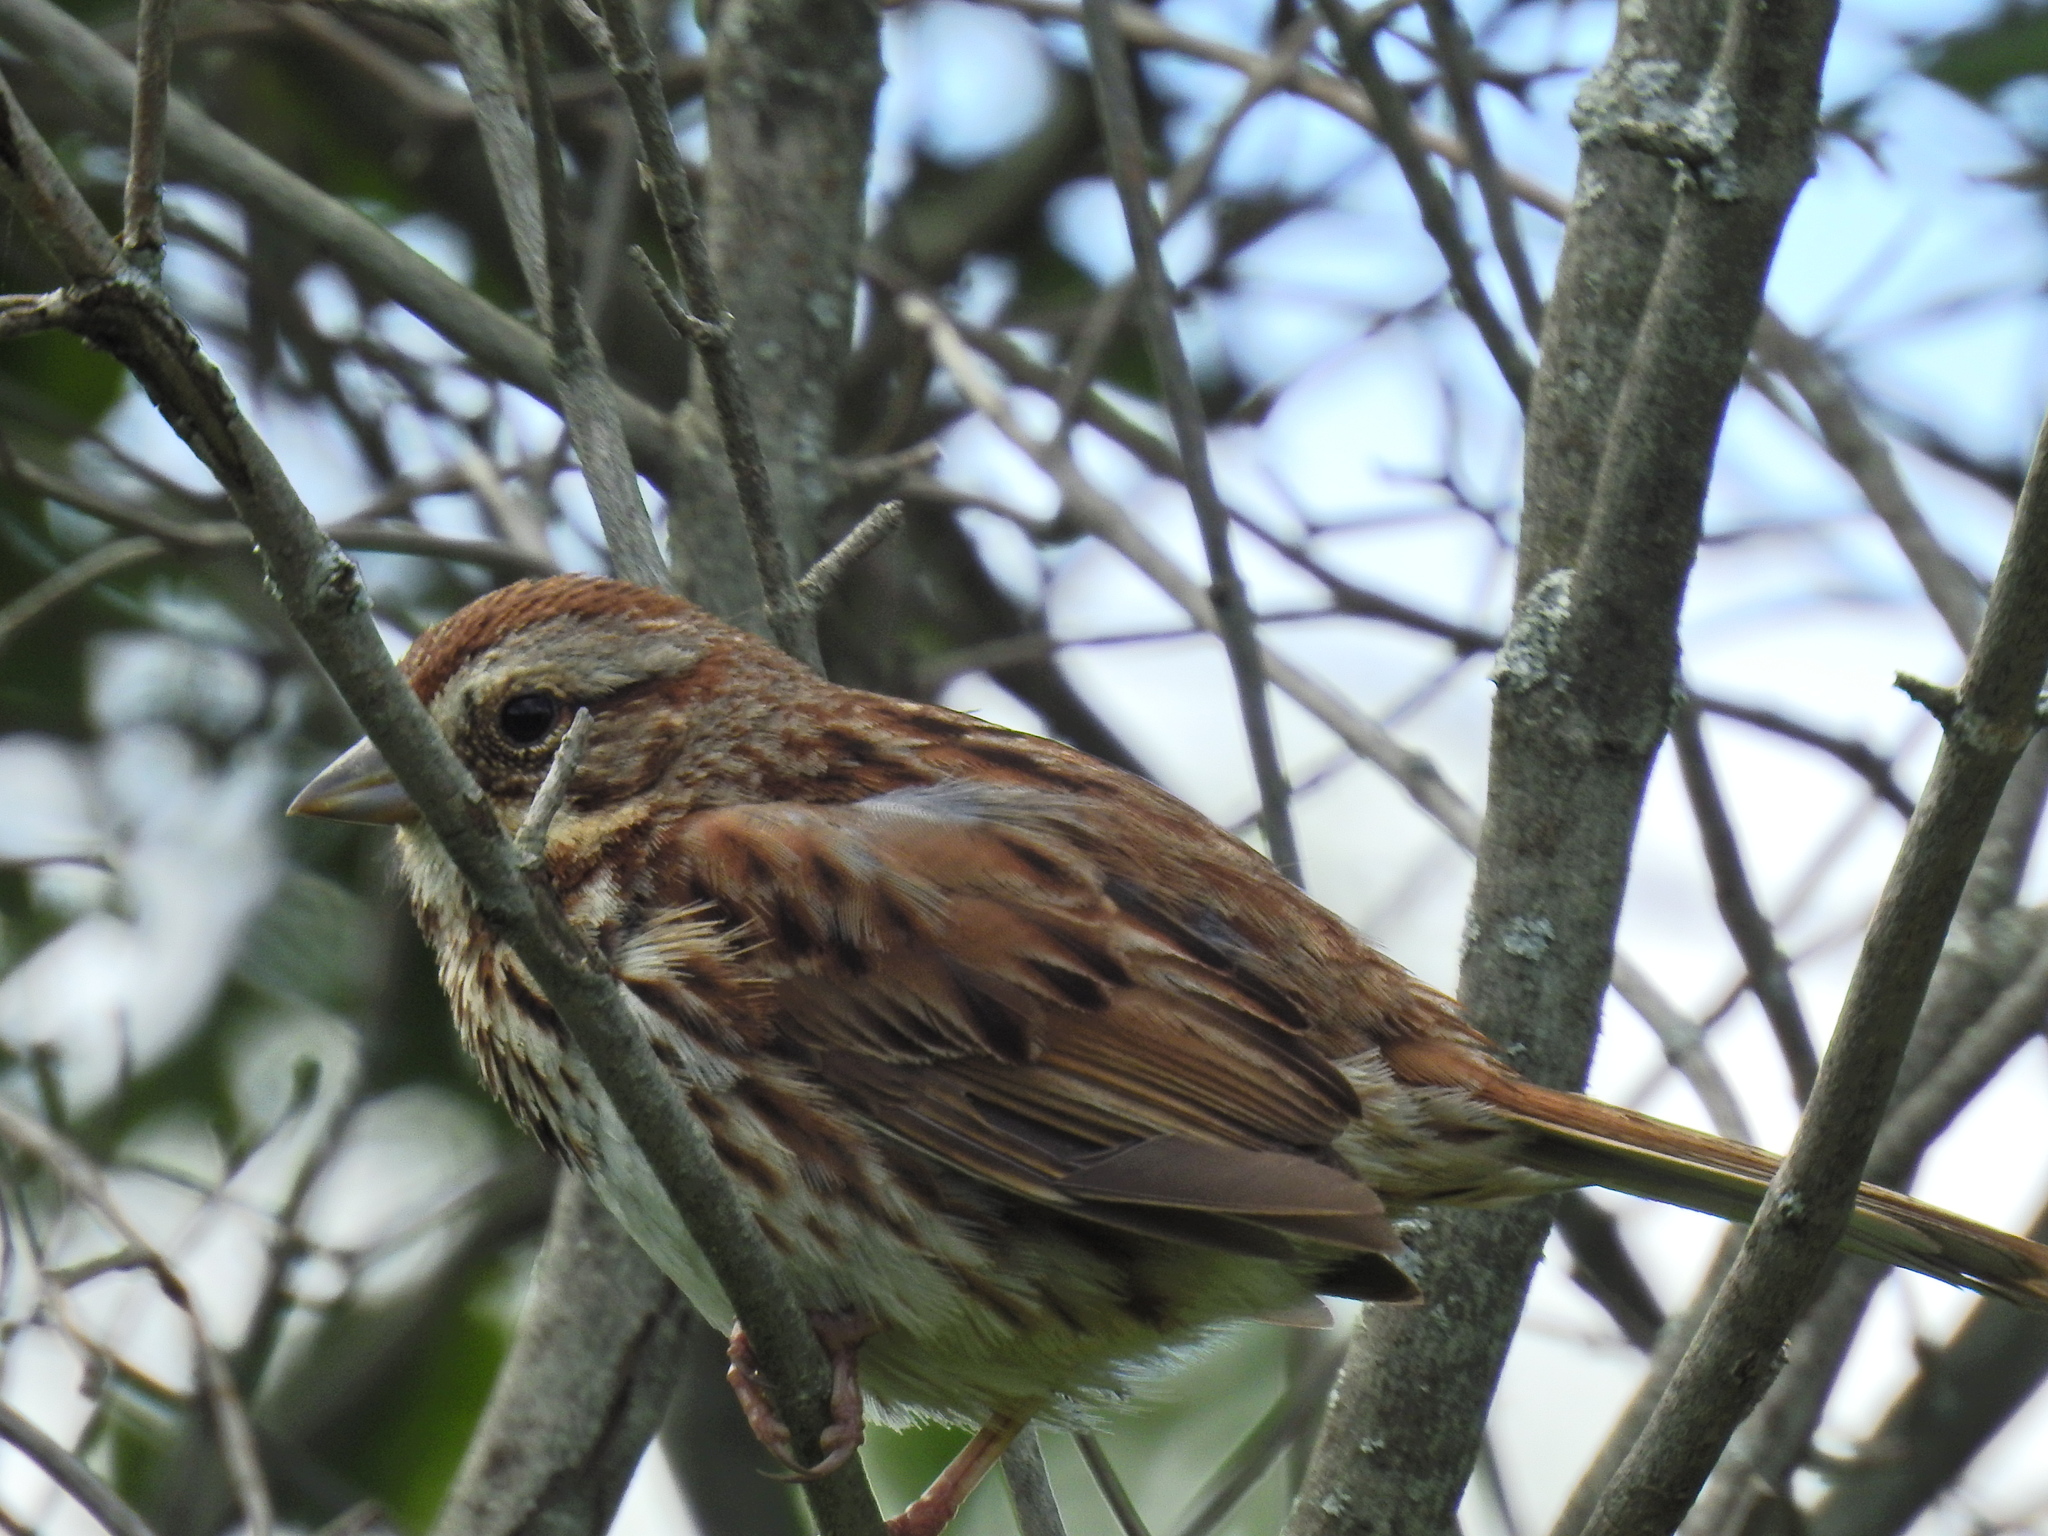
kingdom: Animalia
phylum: Chordata
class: Aves
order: Passeriformes
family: Passerellidae
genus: Melospiza
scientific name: Melospiza melodia
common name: Song sparrow
